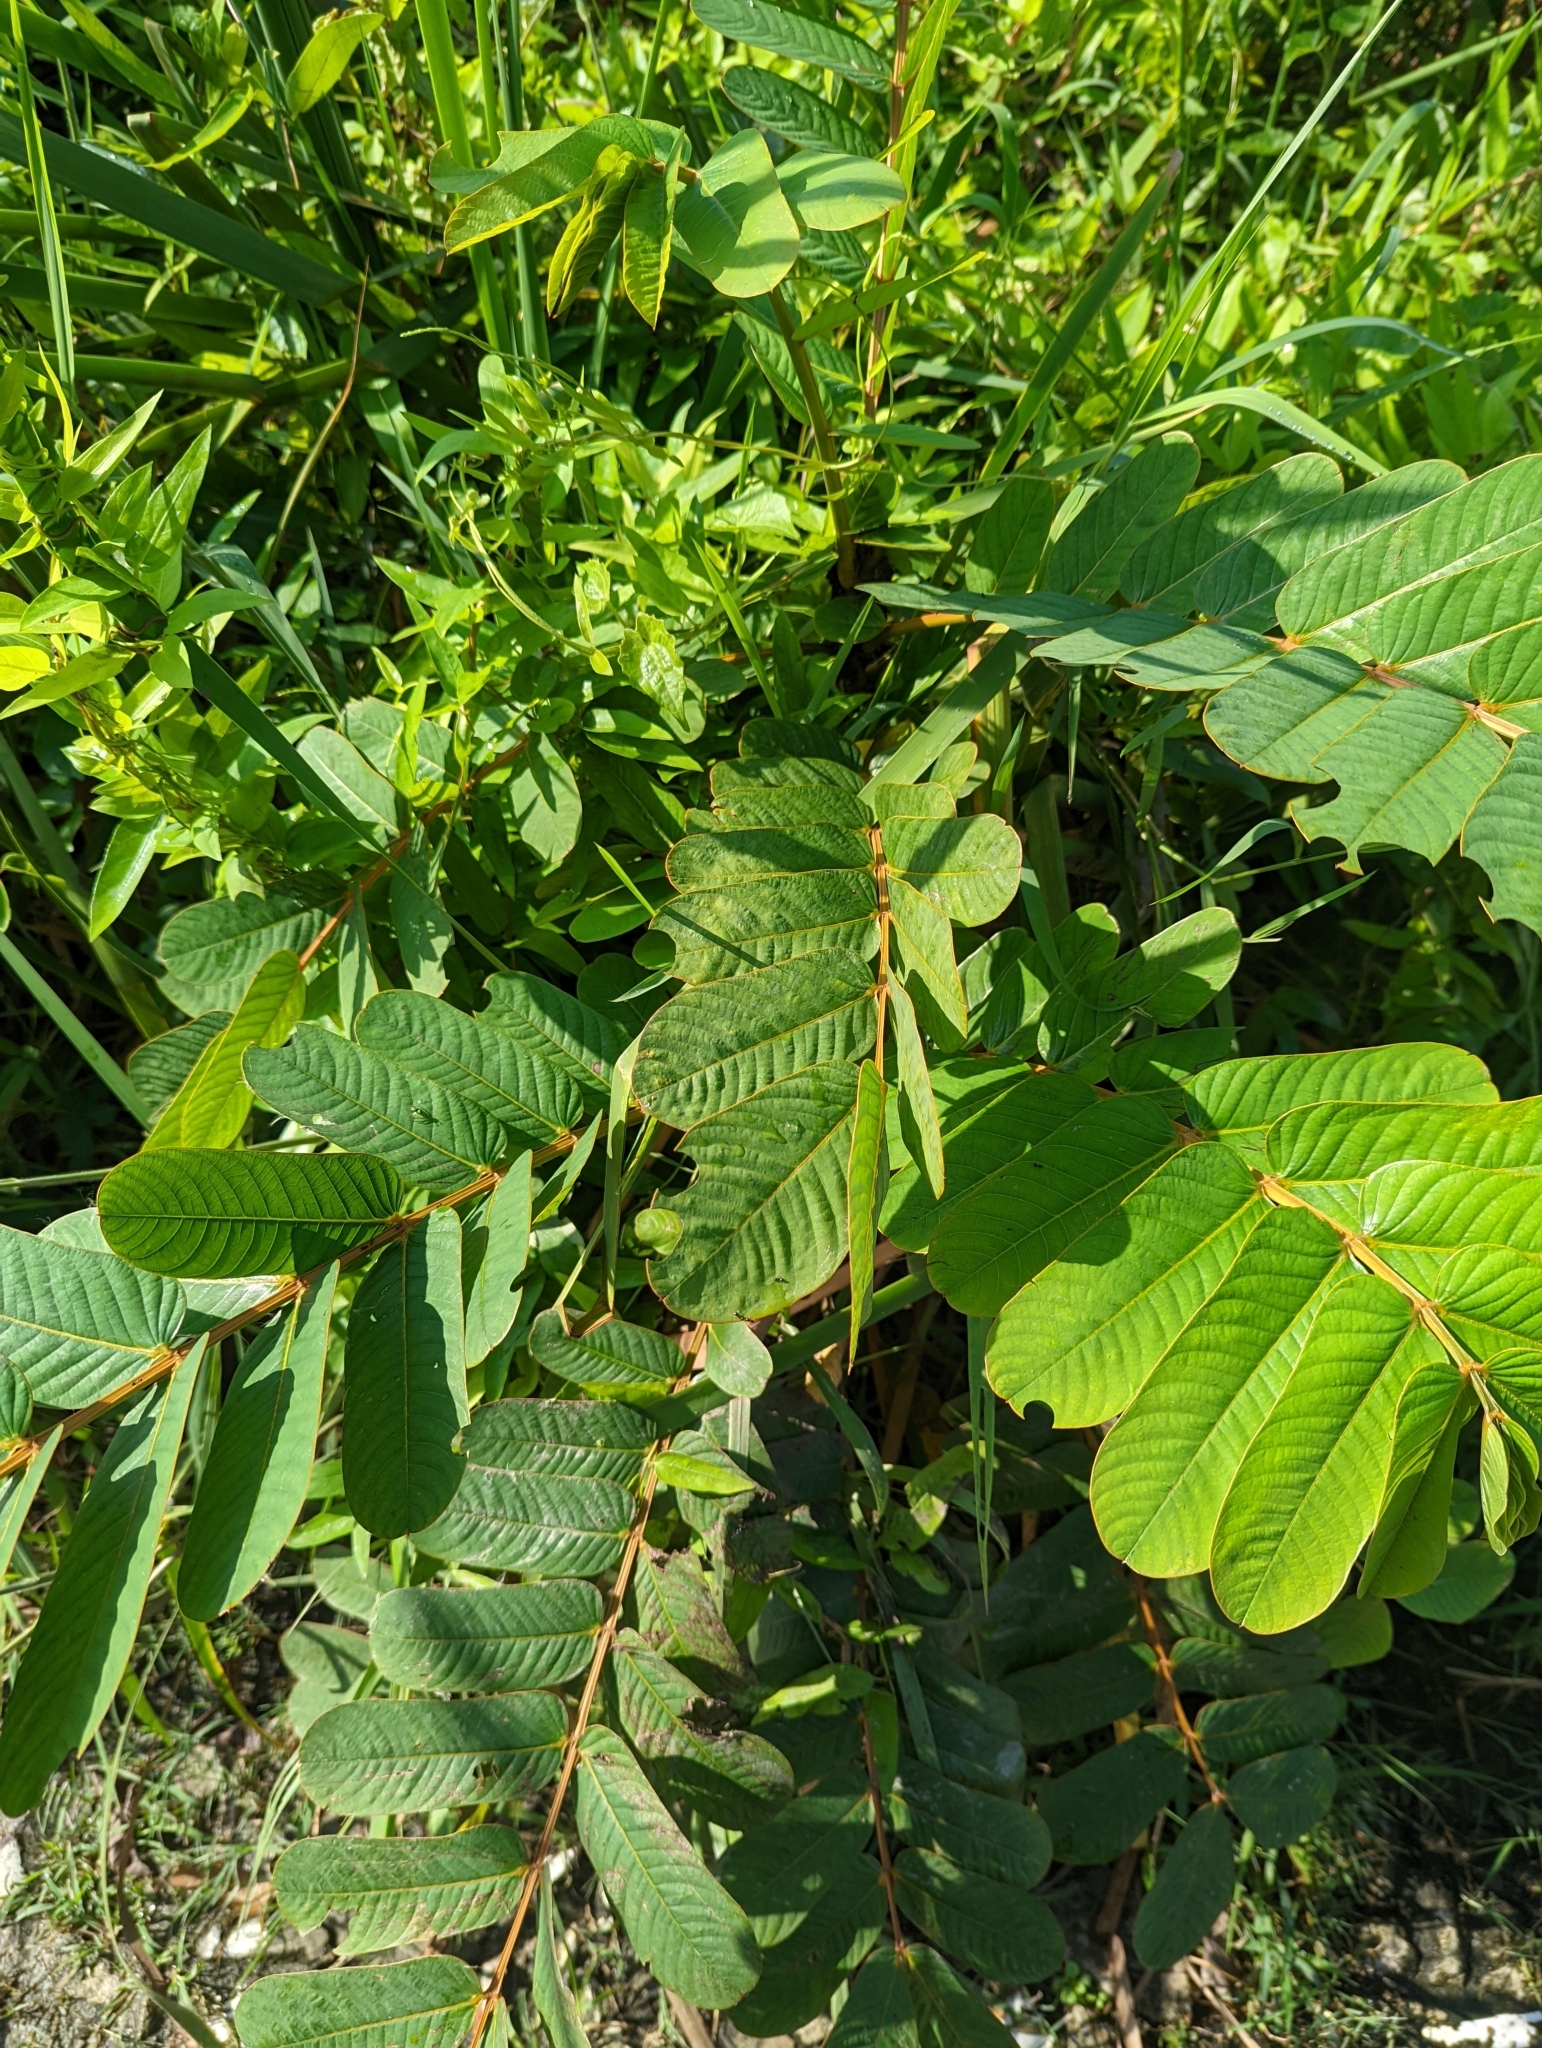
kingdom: Plantae
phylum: Tracheophyta
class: Magnoliopsida
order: Fabales
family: Fabaceae
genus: Senna
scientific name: Senna alata
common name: Emperor's candlesticks
